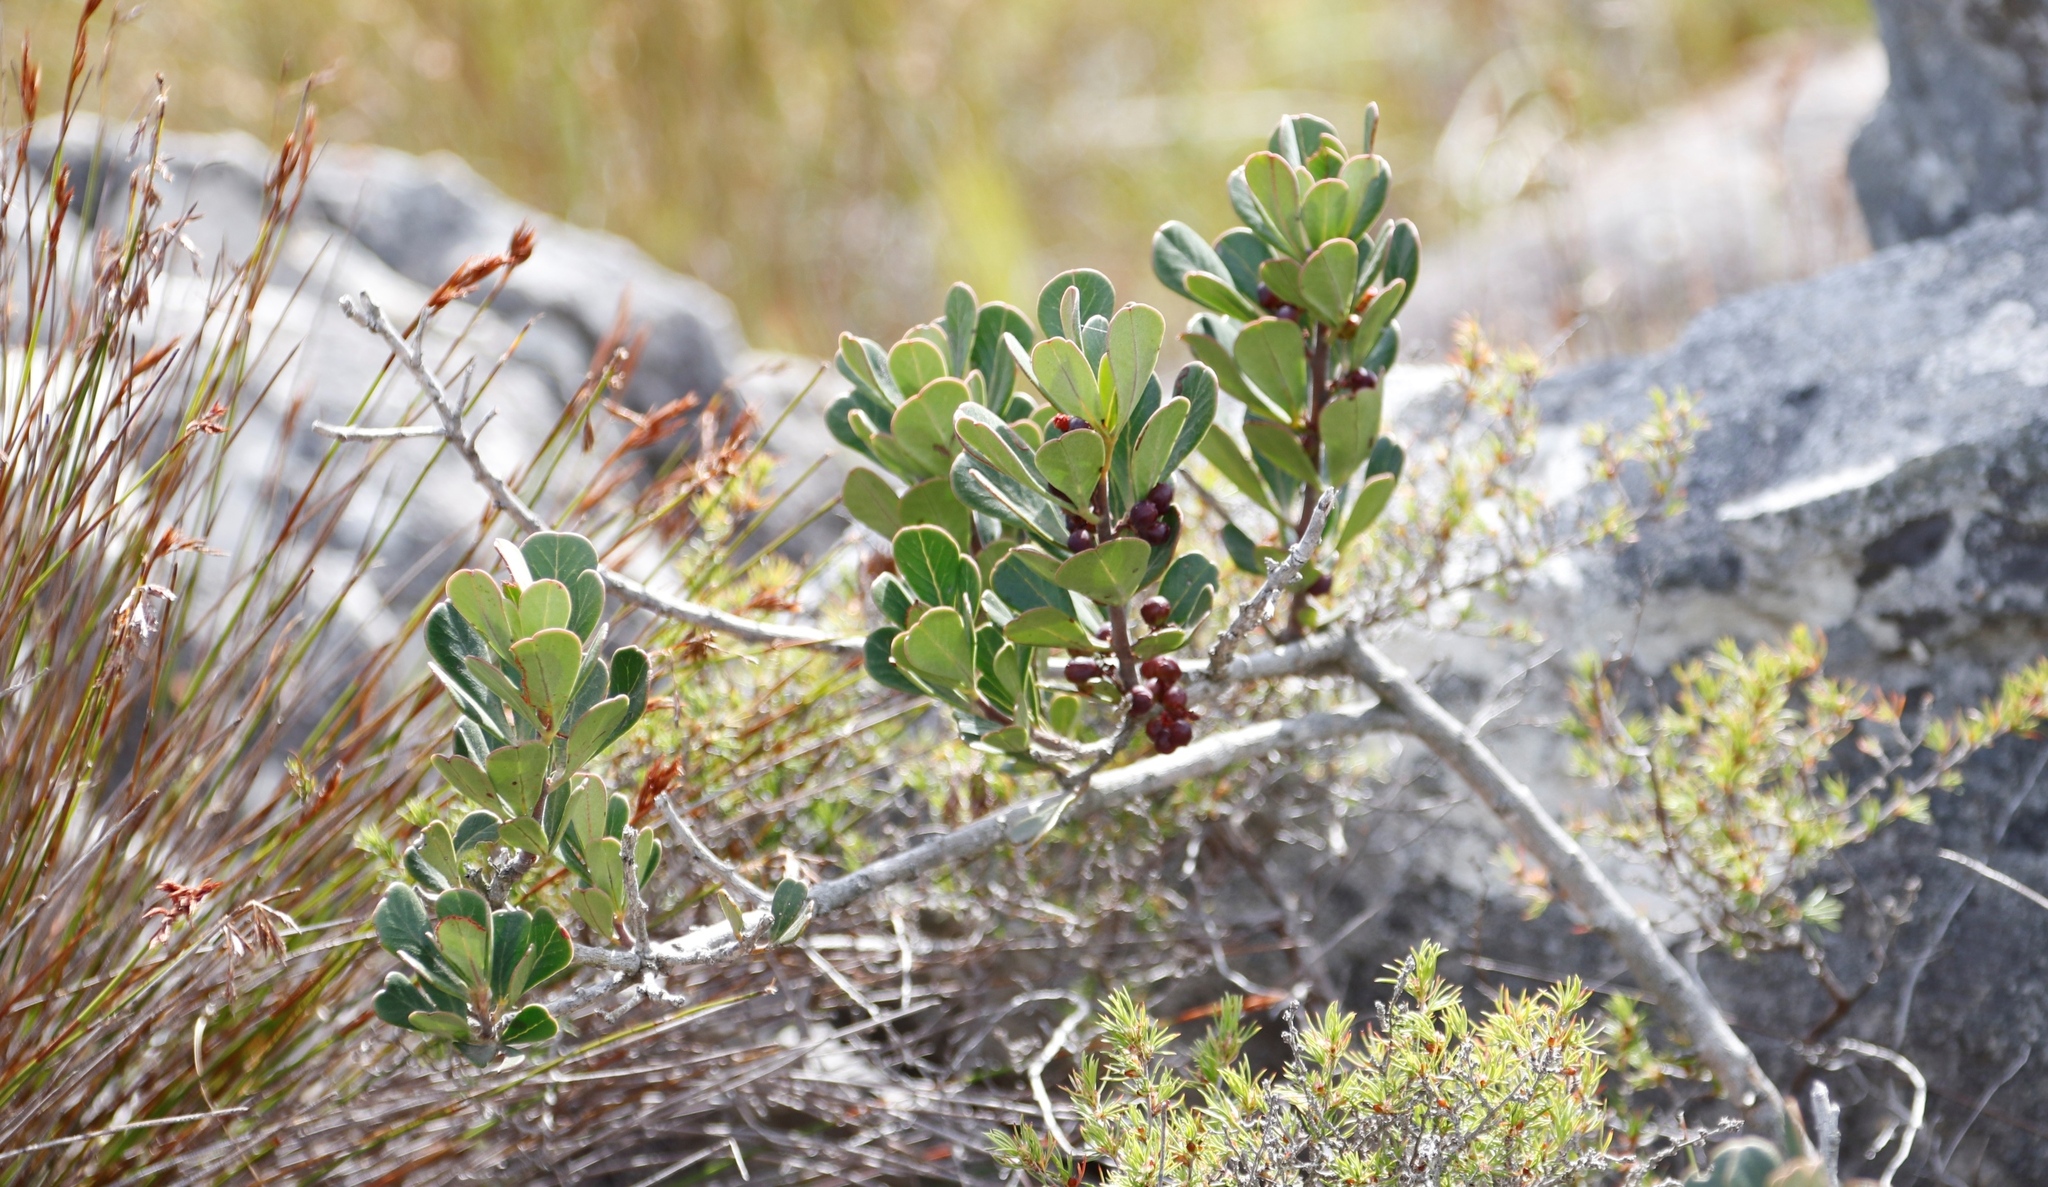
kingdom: Plantae
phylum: Tracheophyta
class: Magnoliopsida
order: Sapindales
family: Anacardiaceae
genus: Searsia
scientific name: Searsia scytophylla
